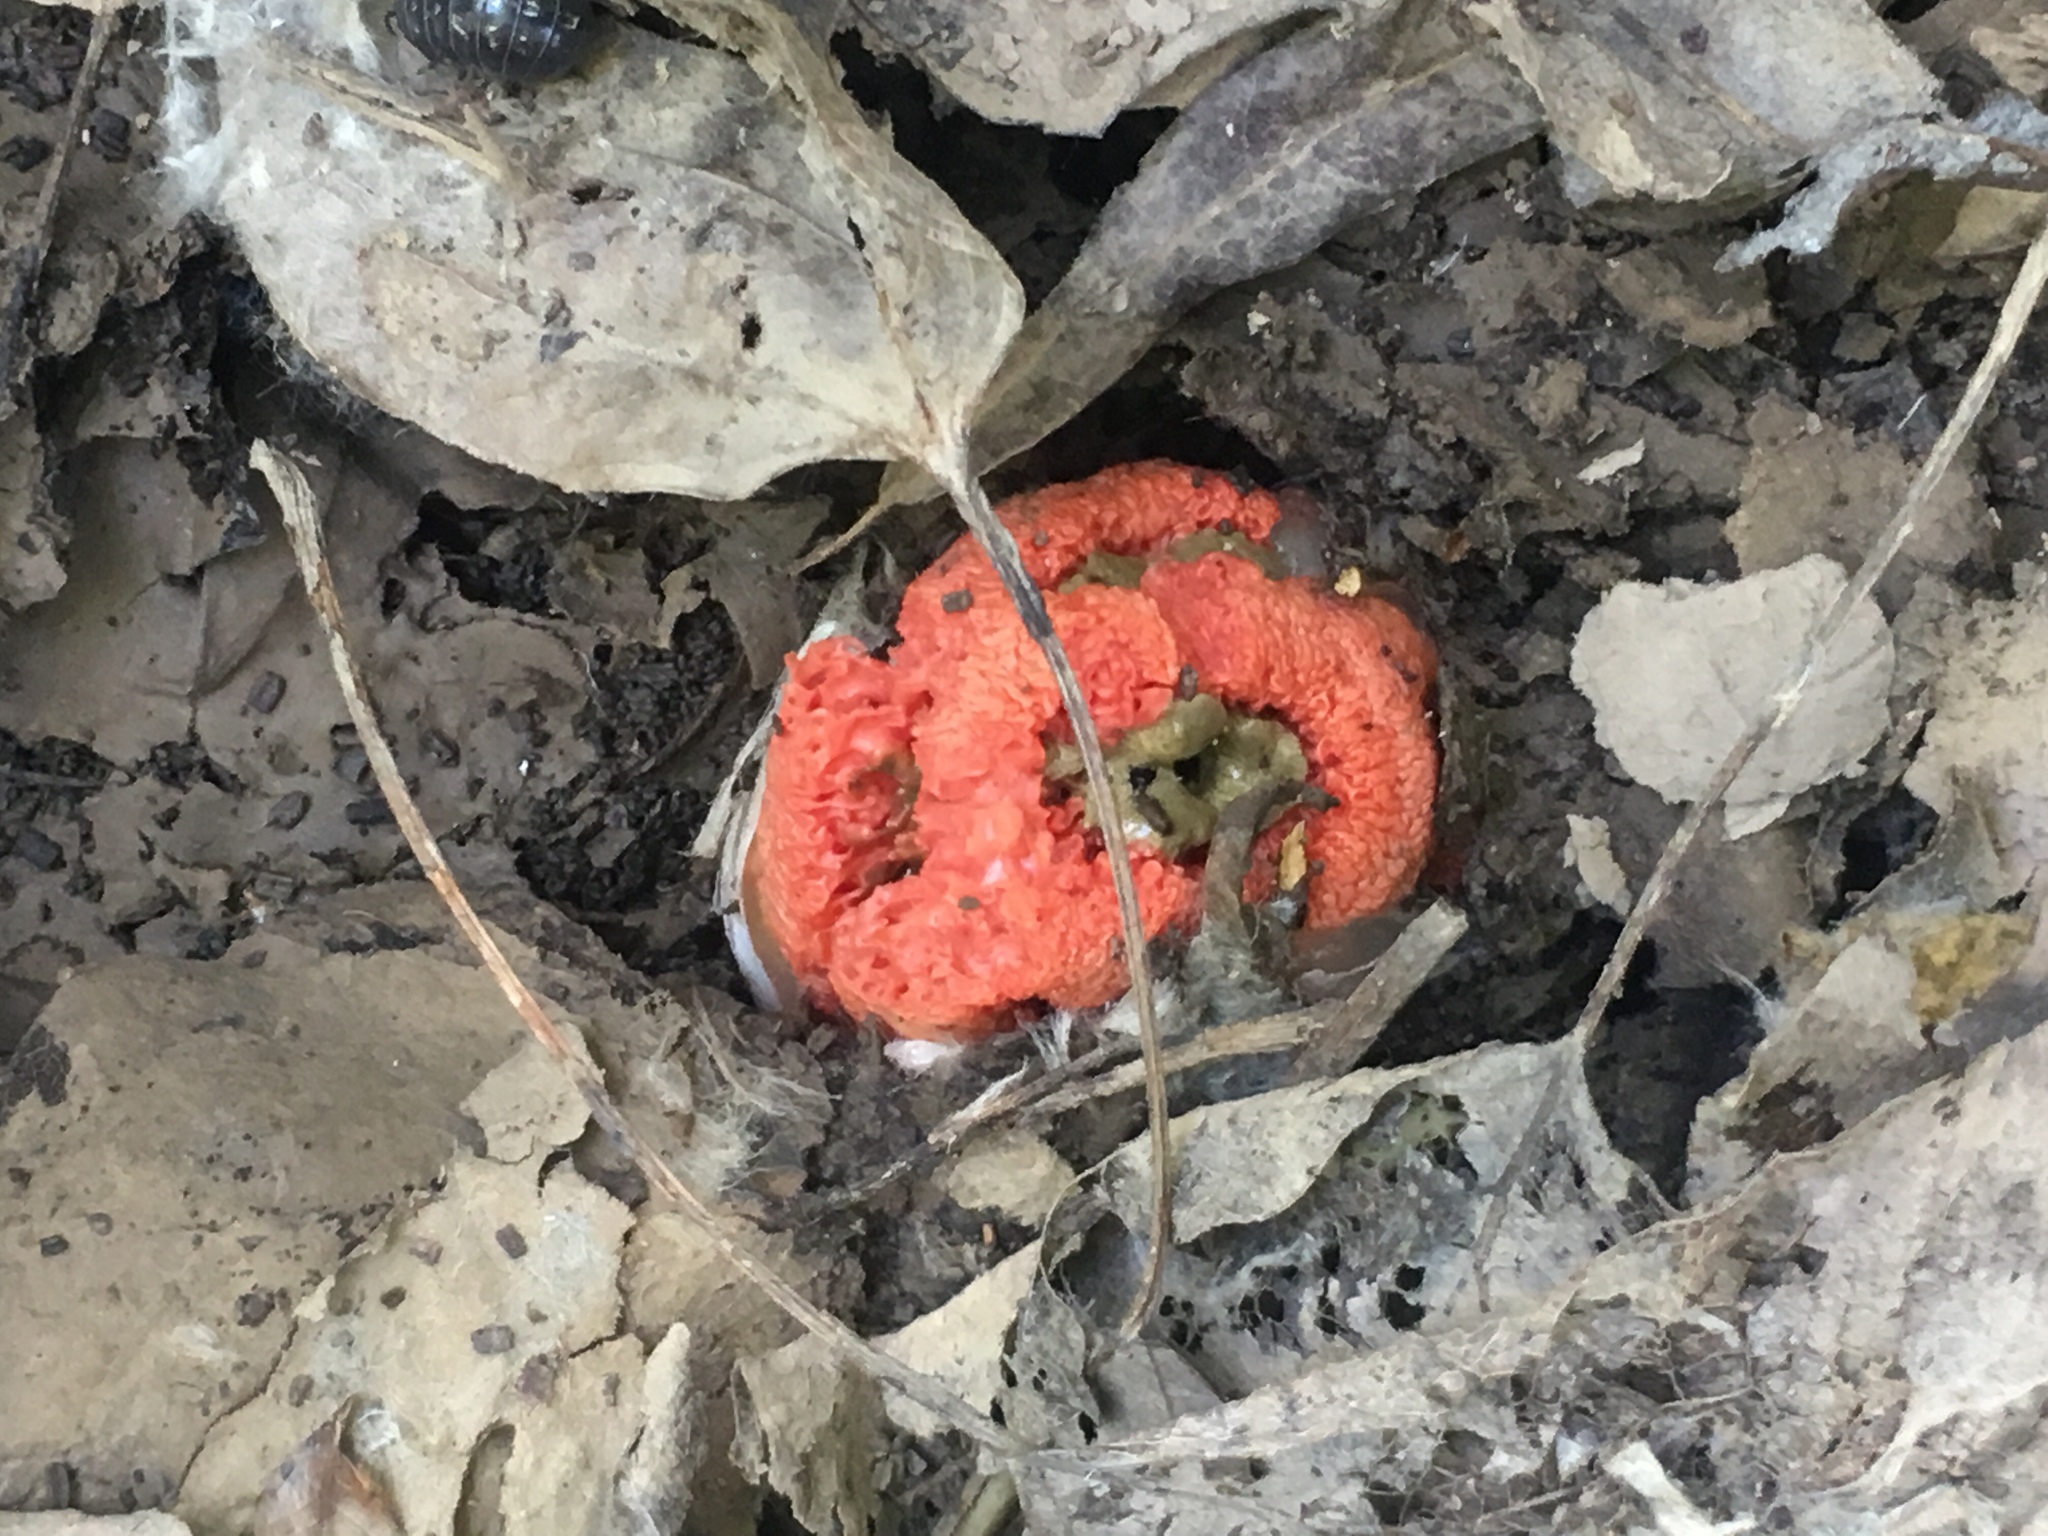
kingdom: Fungi
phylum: Basidiomycota
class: Agaricomycetes
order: Phallales
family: Phallaceae
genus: Clathrus
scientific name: Clathrus ruber
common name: Red cage
